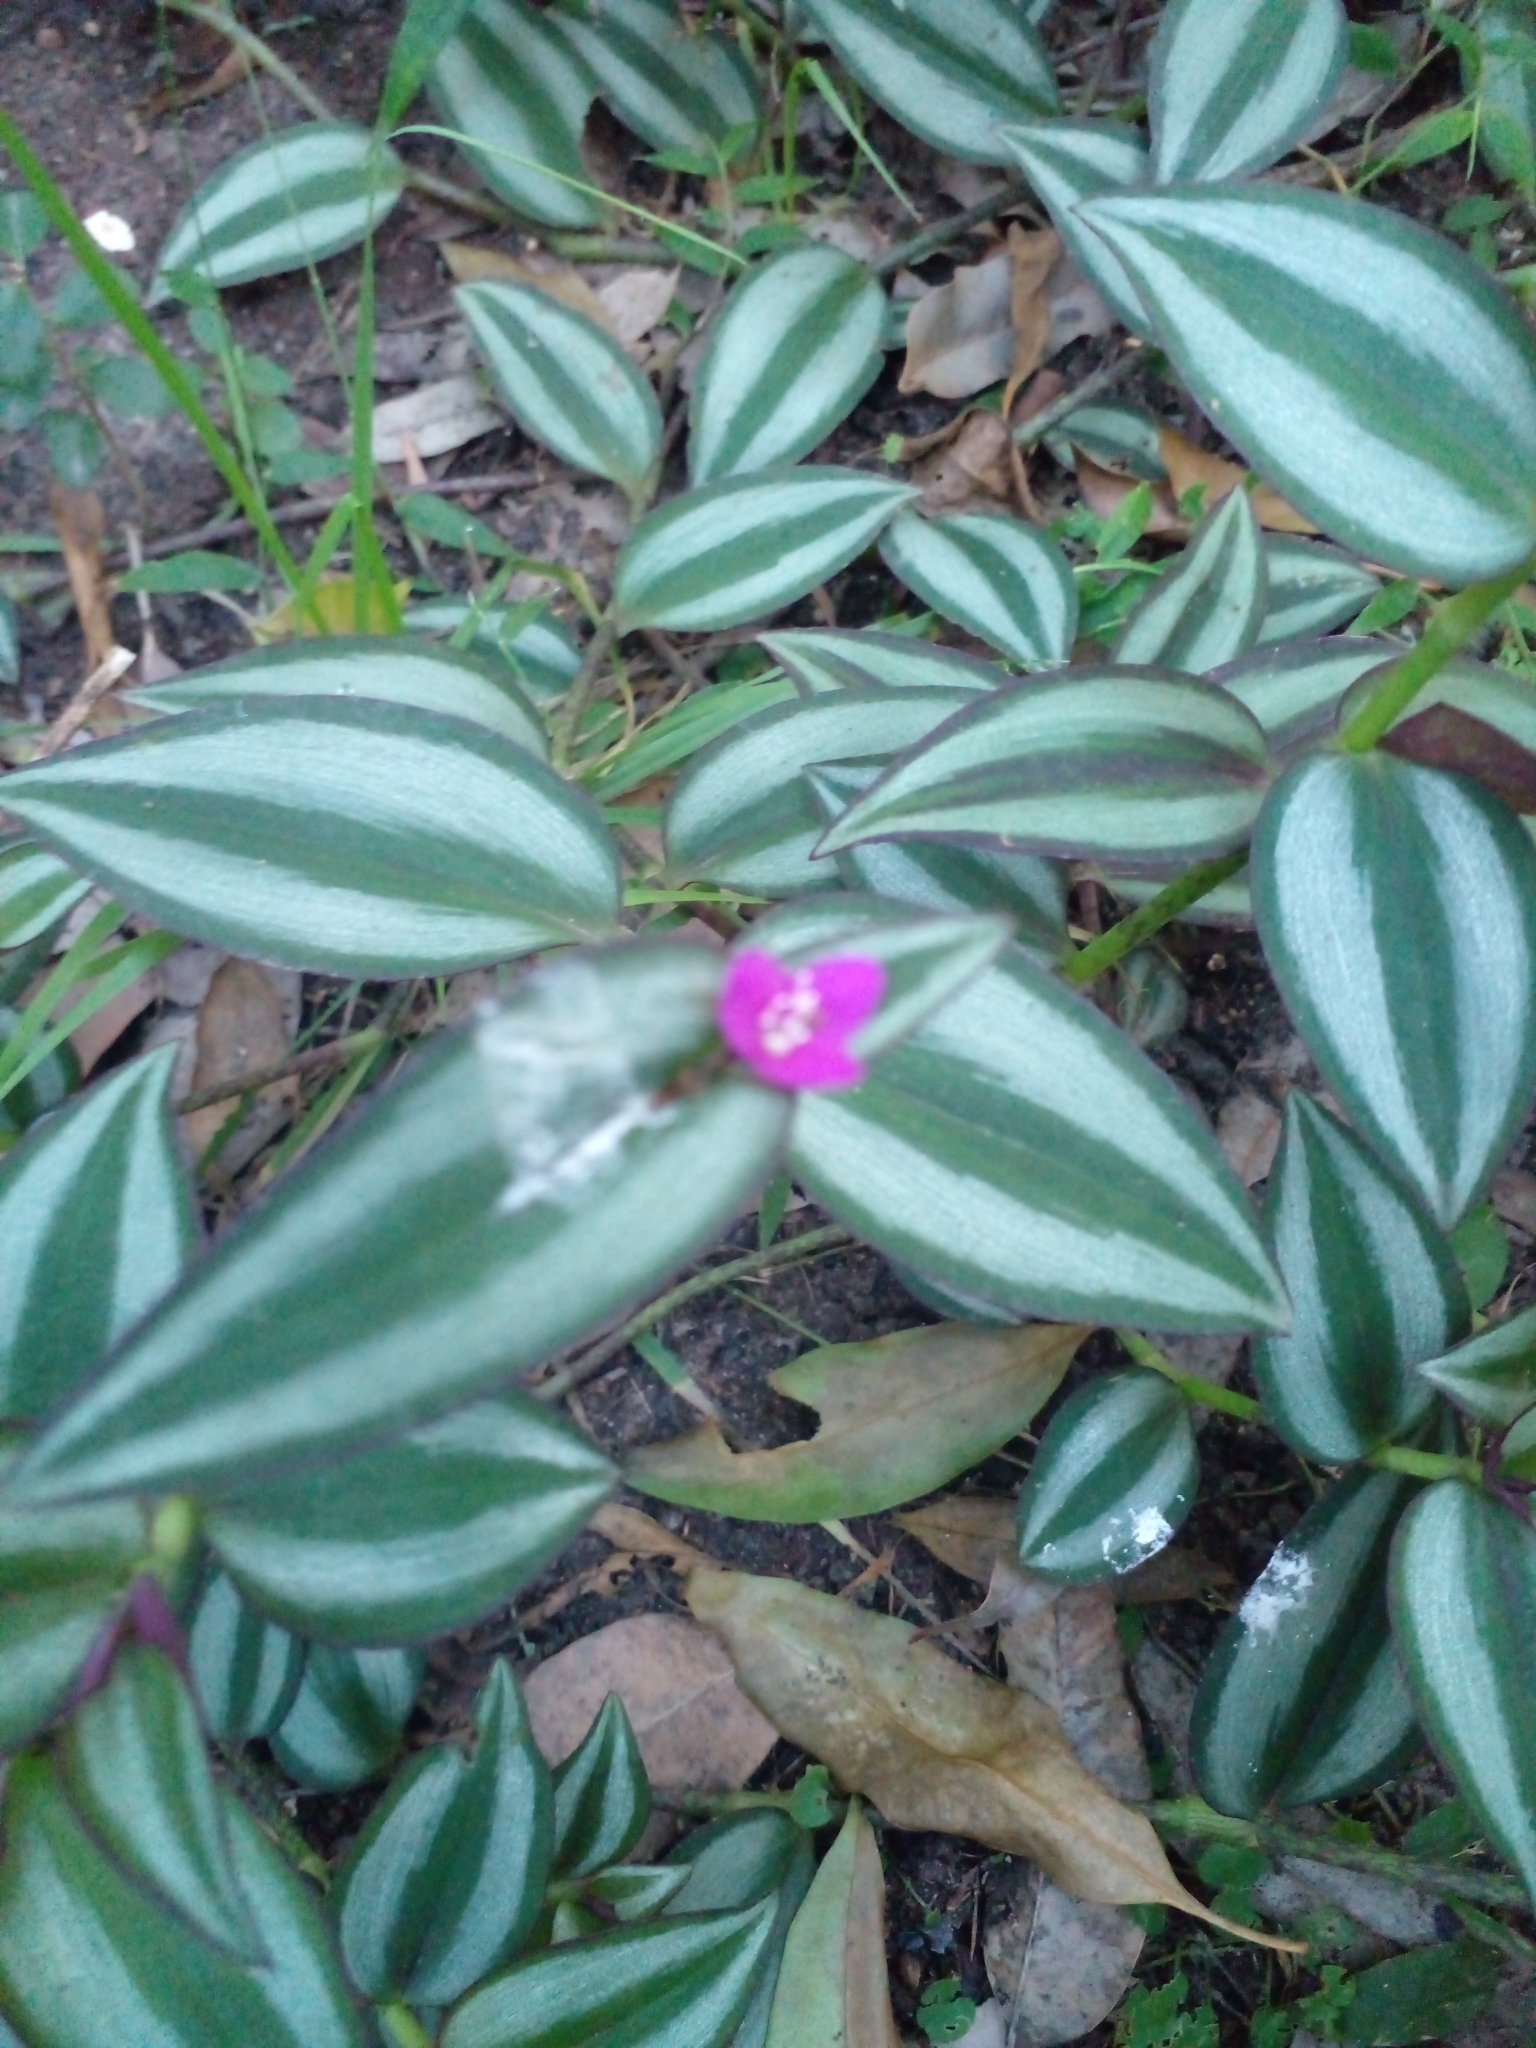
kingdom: Plantae
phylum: Tracheophyta
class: Liliopsida
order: Commelinales
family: Commelinaceae
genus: Tradescantia
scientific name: Tradescantia zebrina
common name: Inchplant
